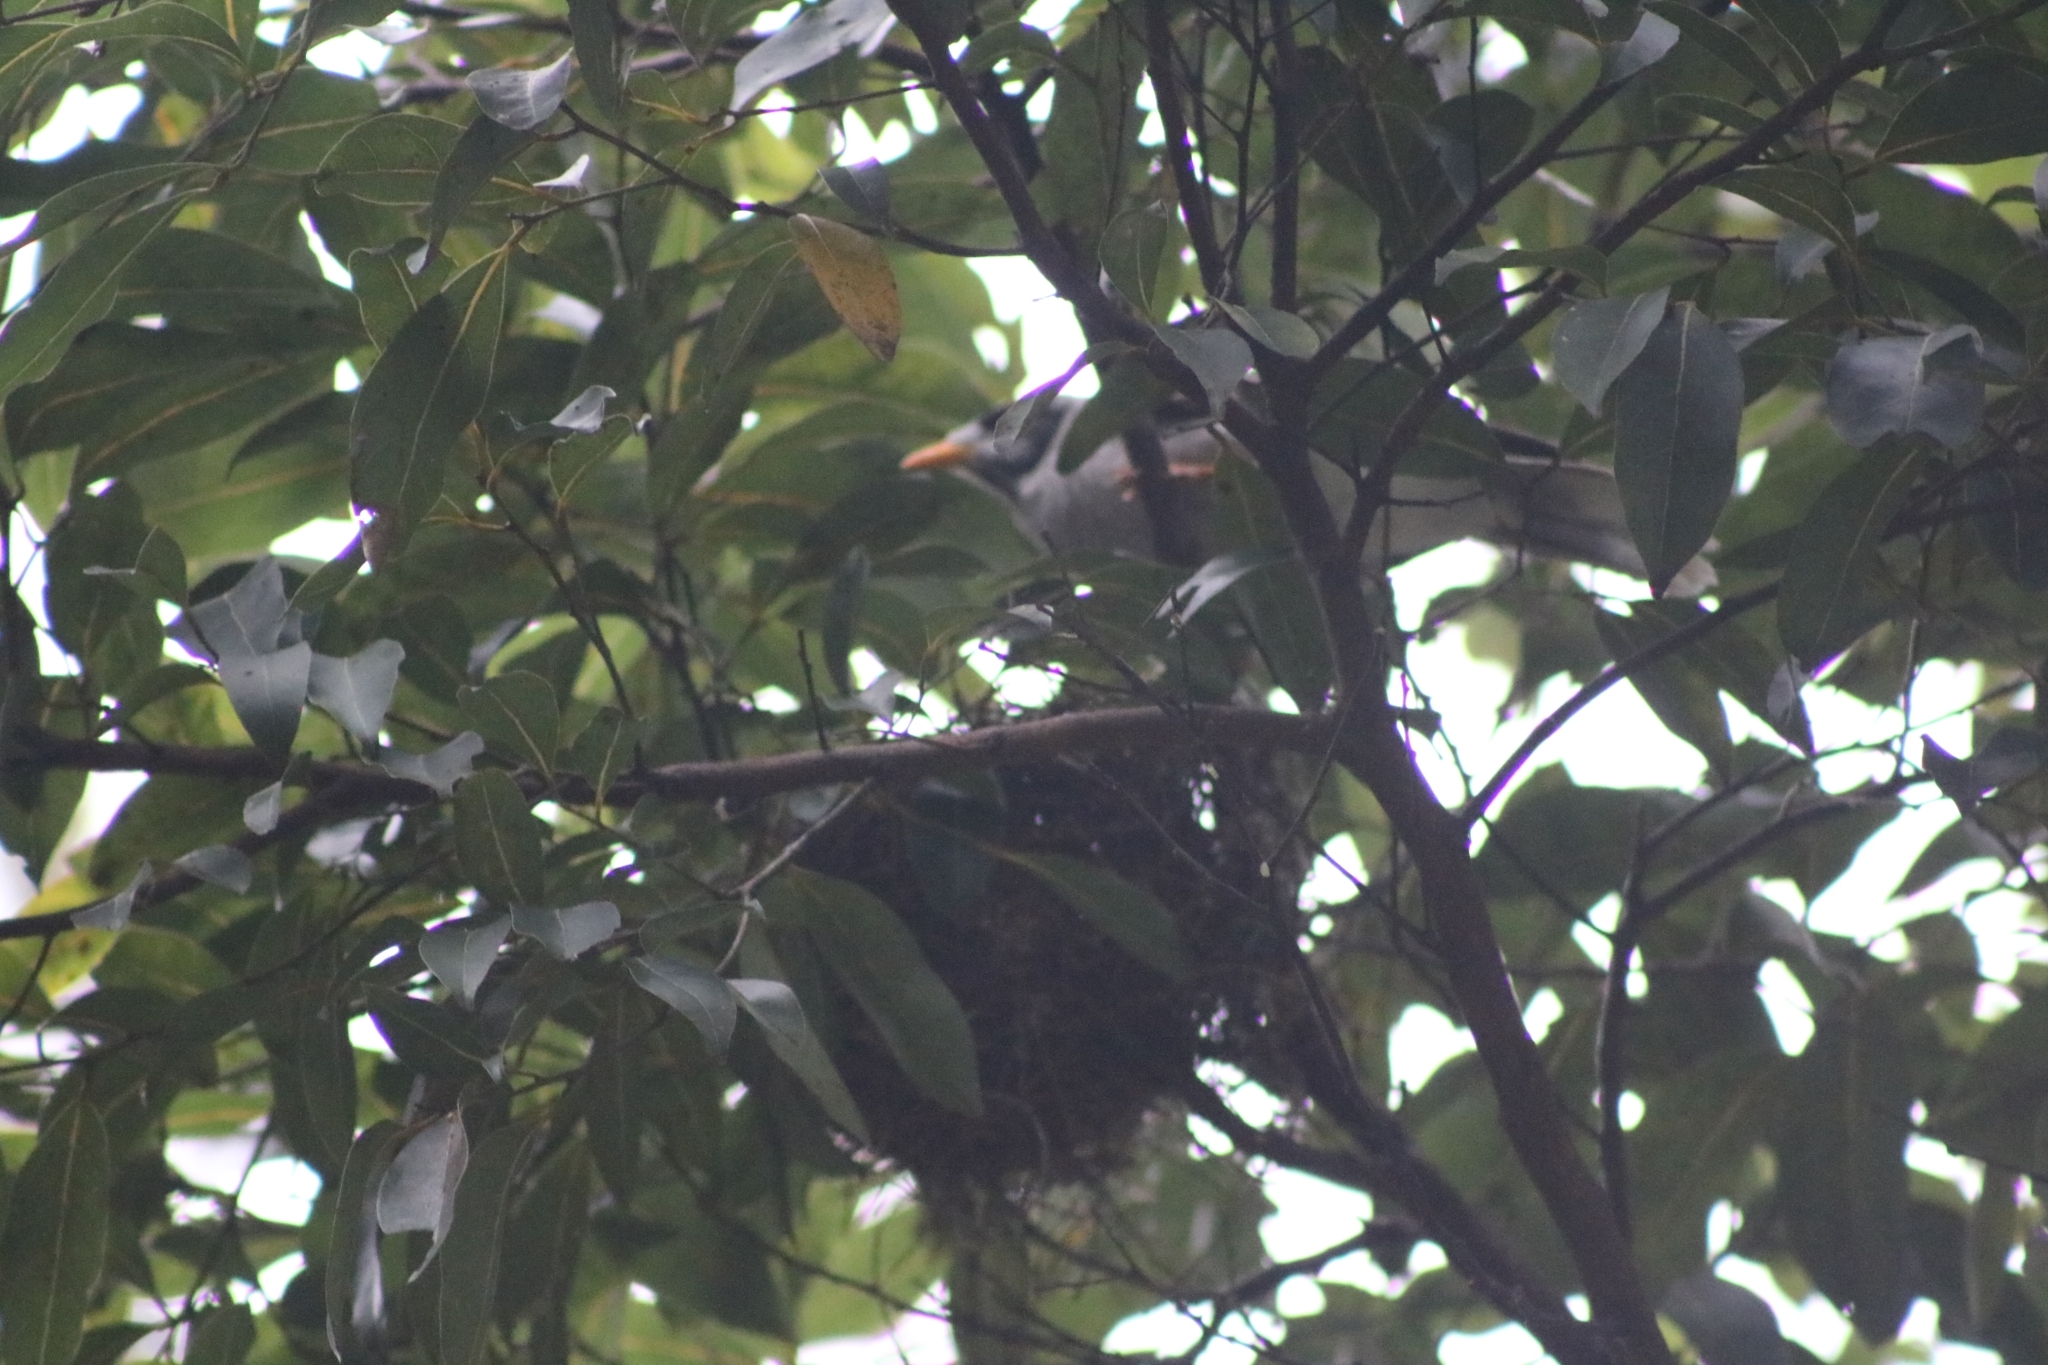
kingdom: Animalia
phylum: Chordata
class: Aves
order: Passeriformes
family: Meliphagidae
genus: Manorina
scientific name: Manorina melanocephala
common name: Noisy miner
